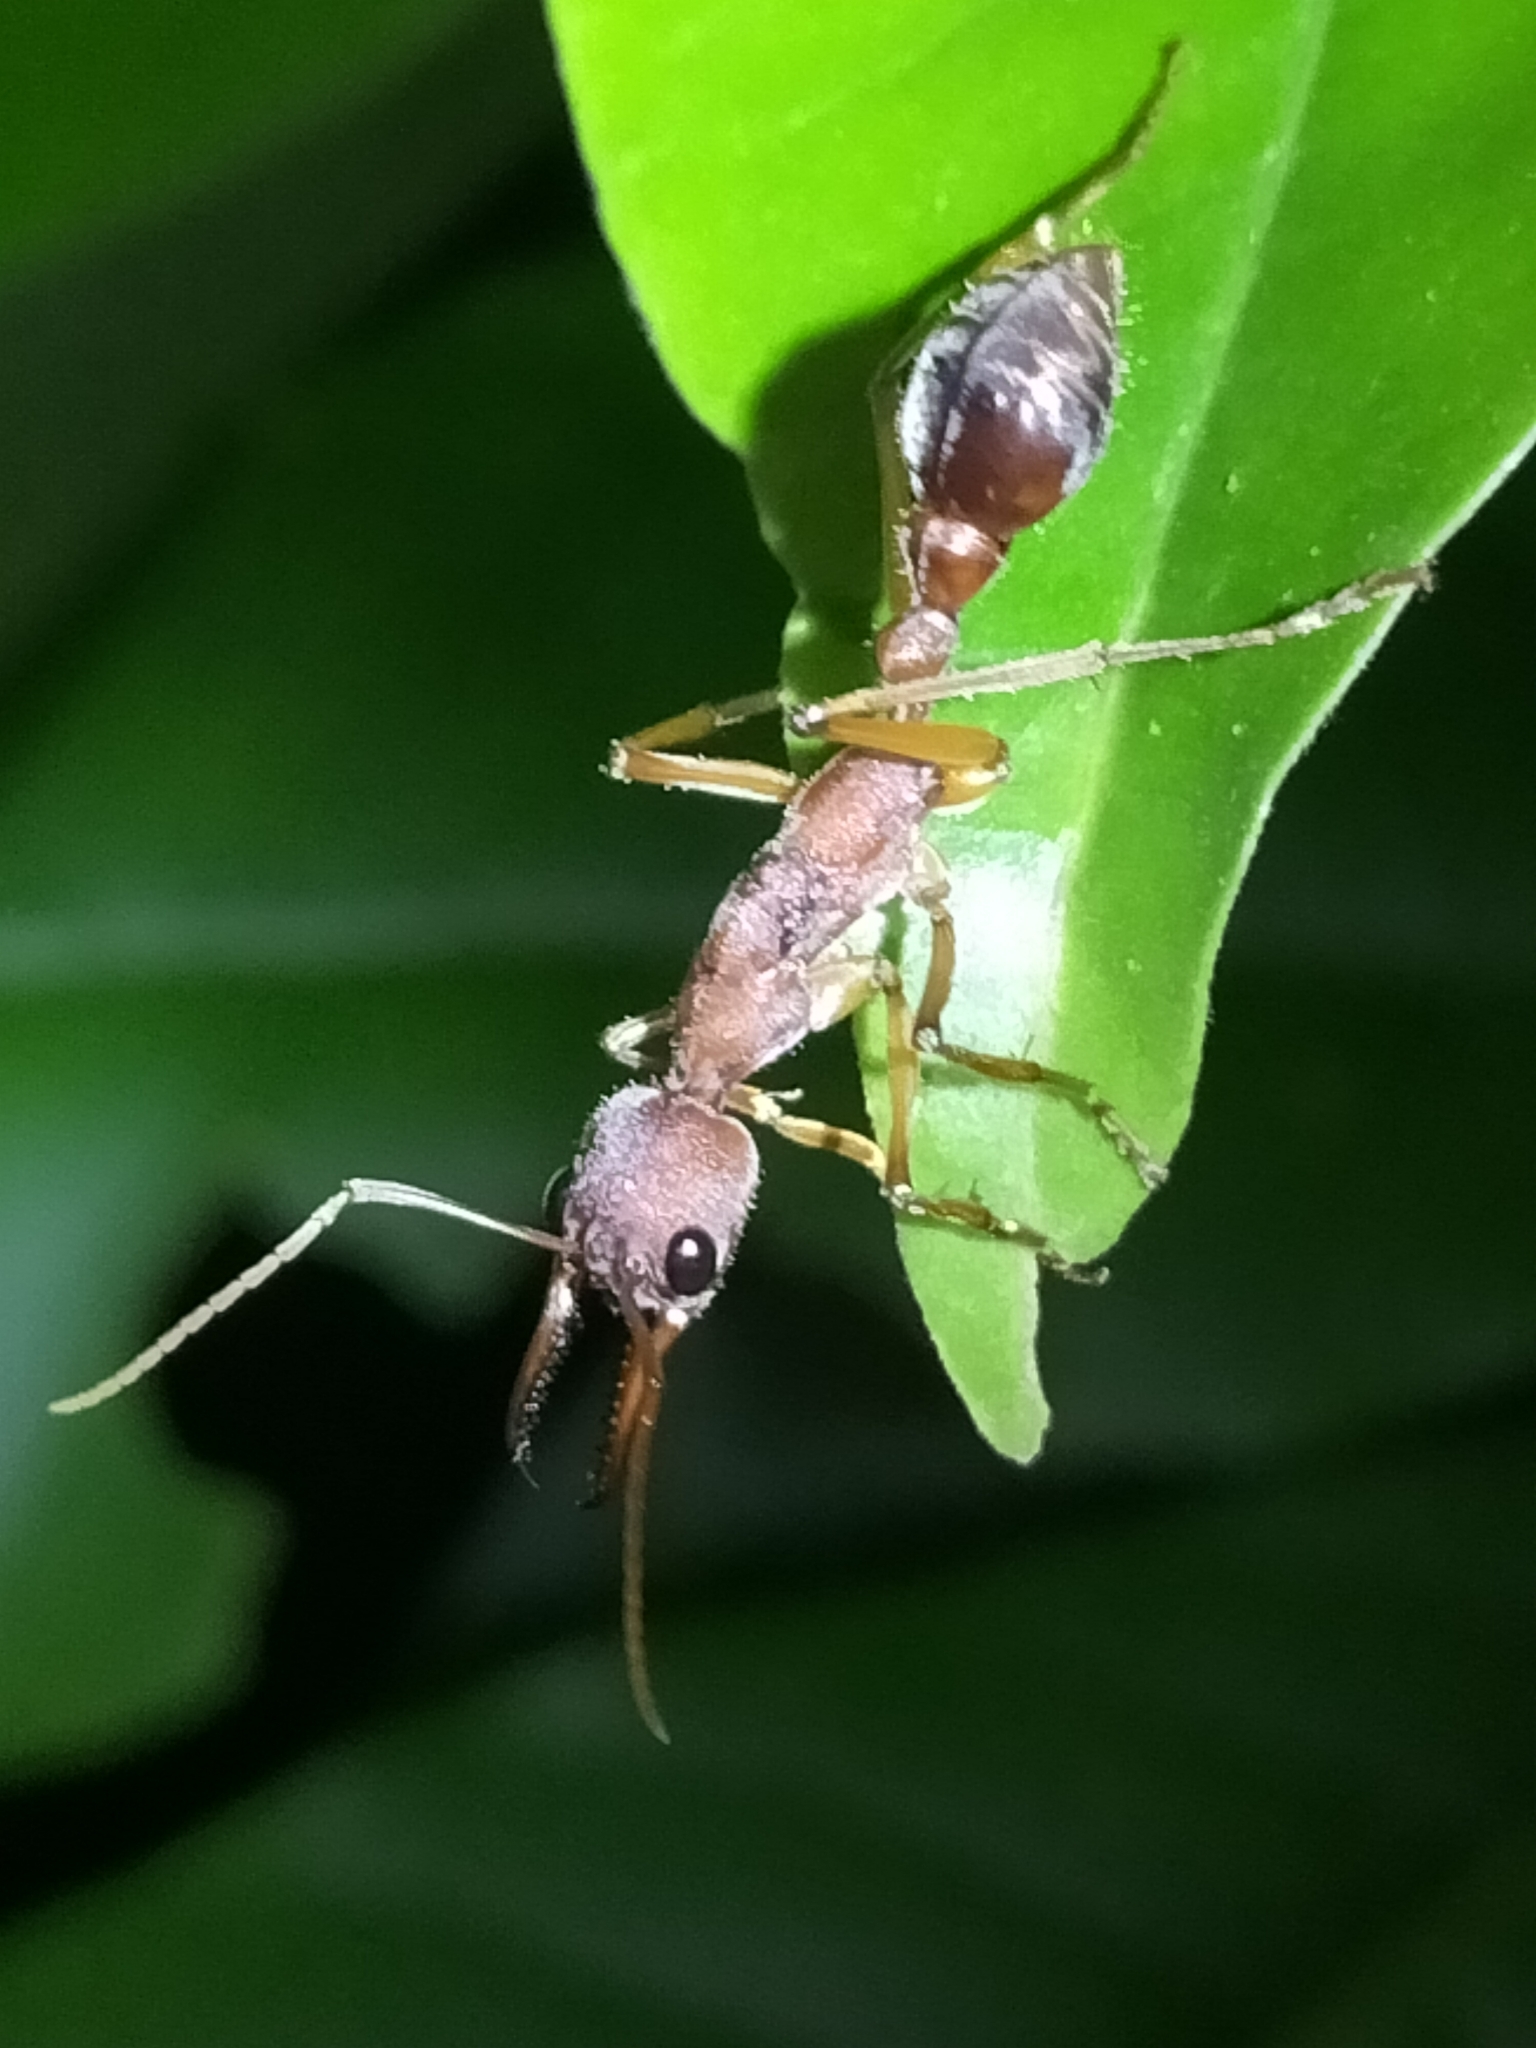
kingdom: Animalia
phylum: Arthropoda
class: Insecta
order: Hymenoptera
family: Formicidae
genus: Myrmecia
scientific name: Myrmecia mjobergi
